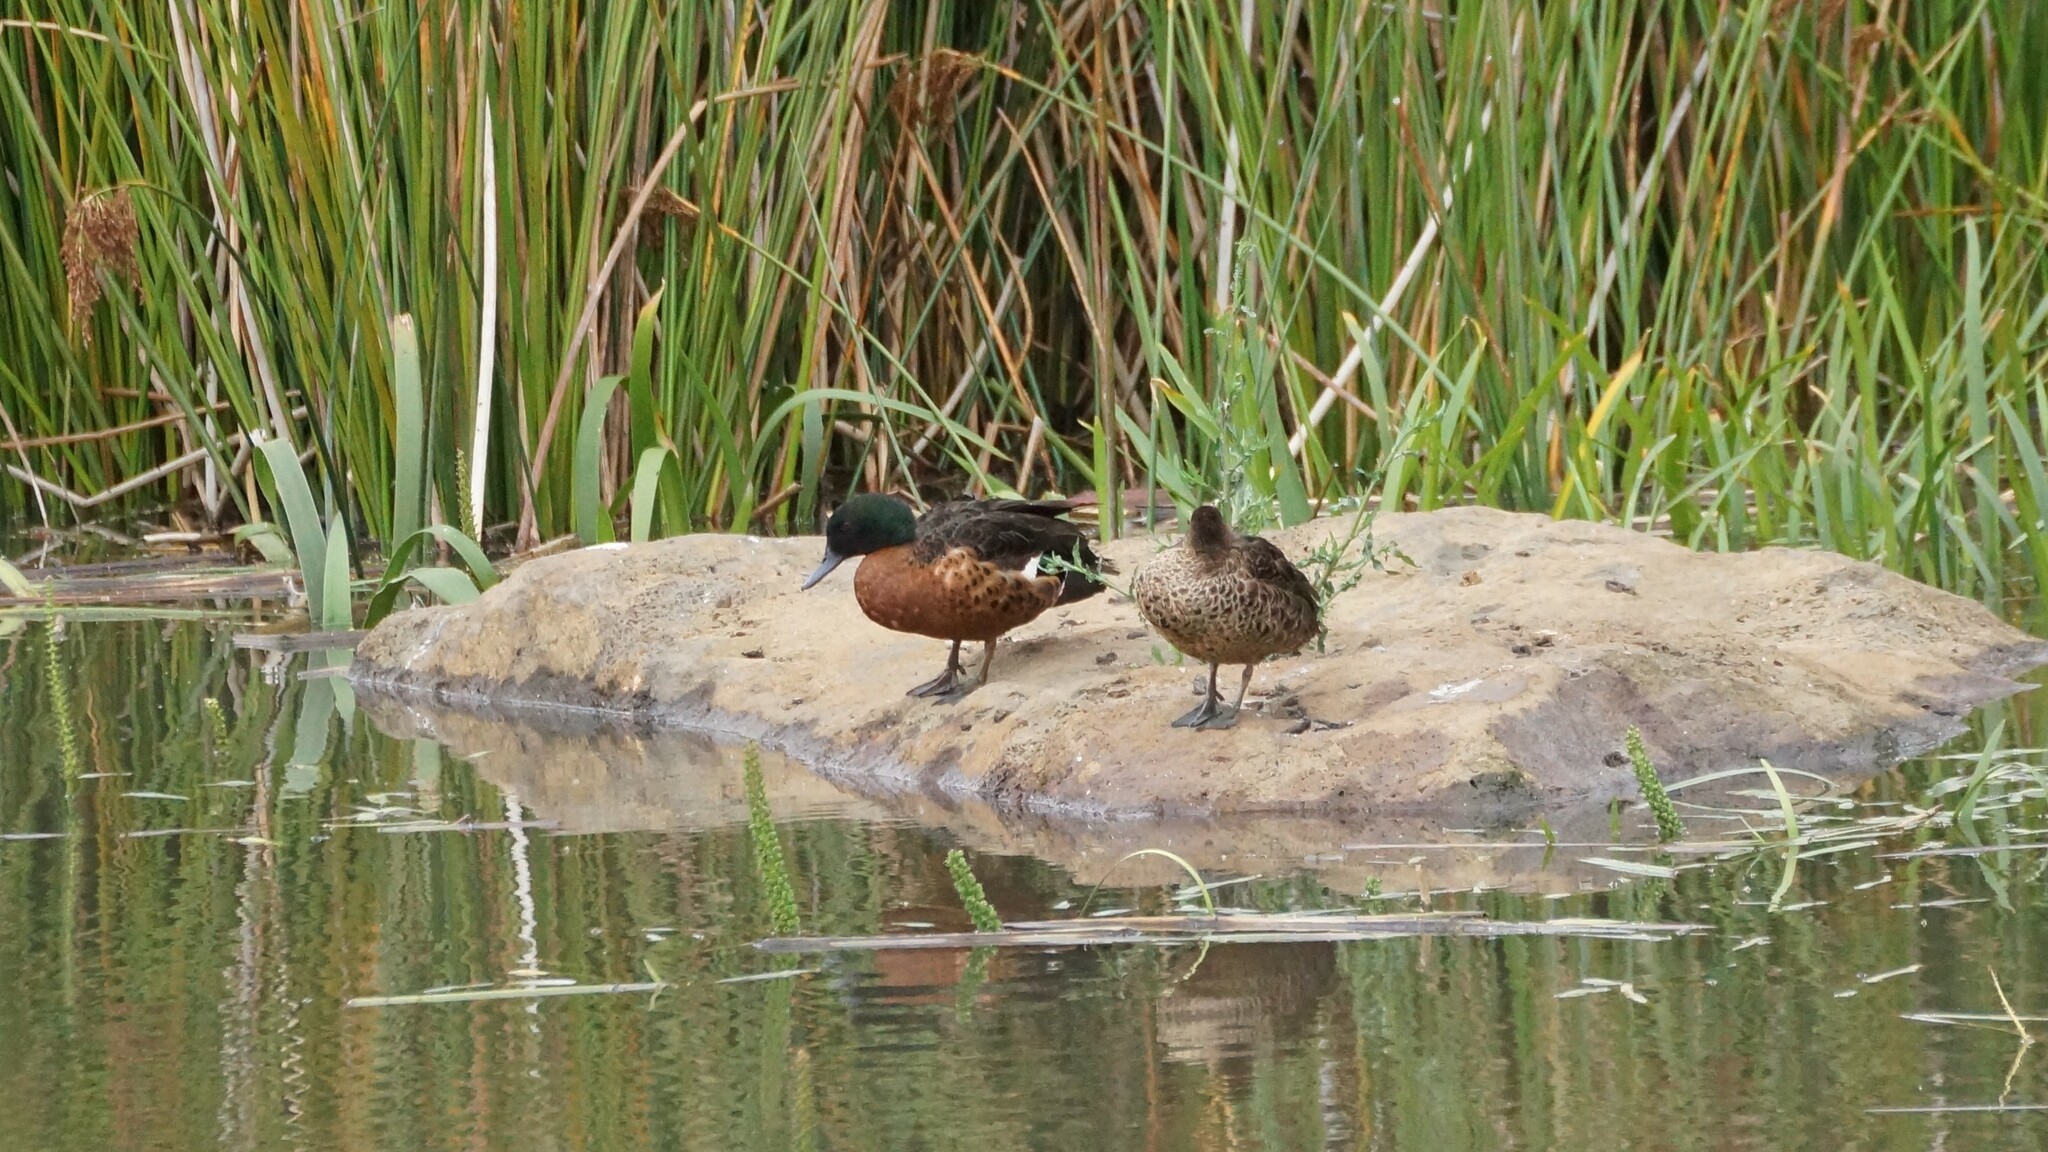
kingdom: Animalia
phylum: Chordata
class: Aves
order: Anseriformes
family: Anatidae
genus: Anas
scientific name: Anas castanea
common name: Chestnut teal
